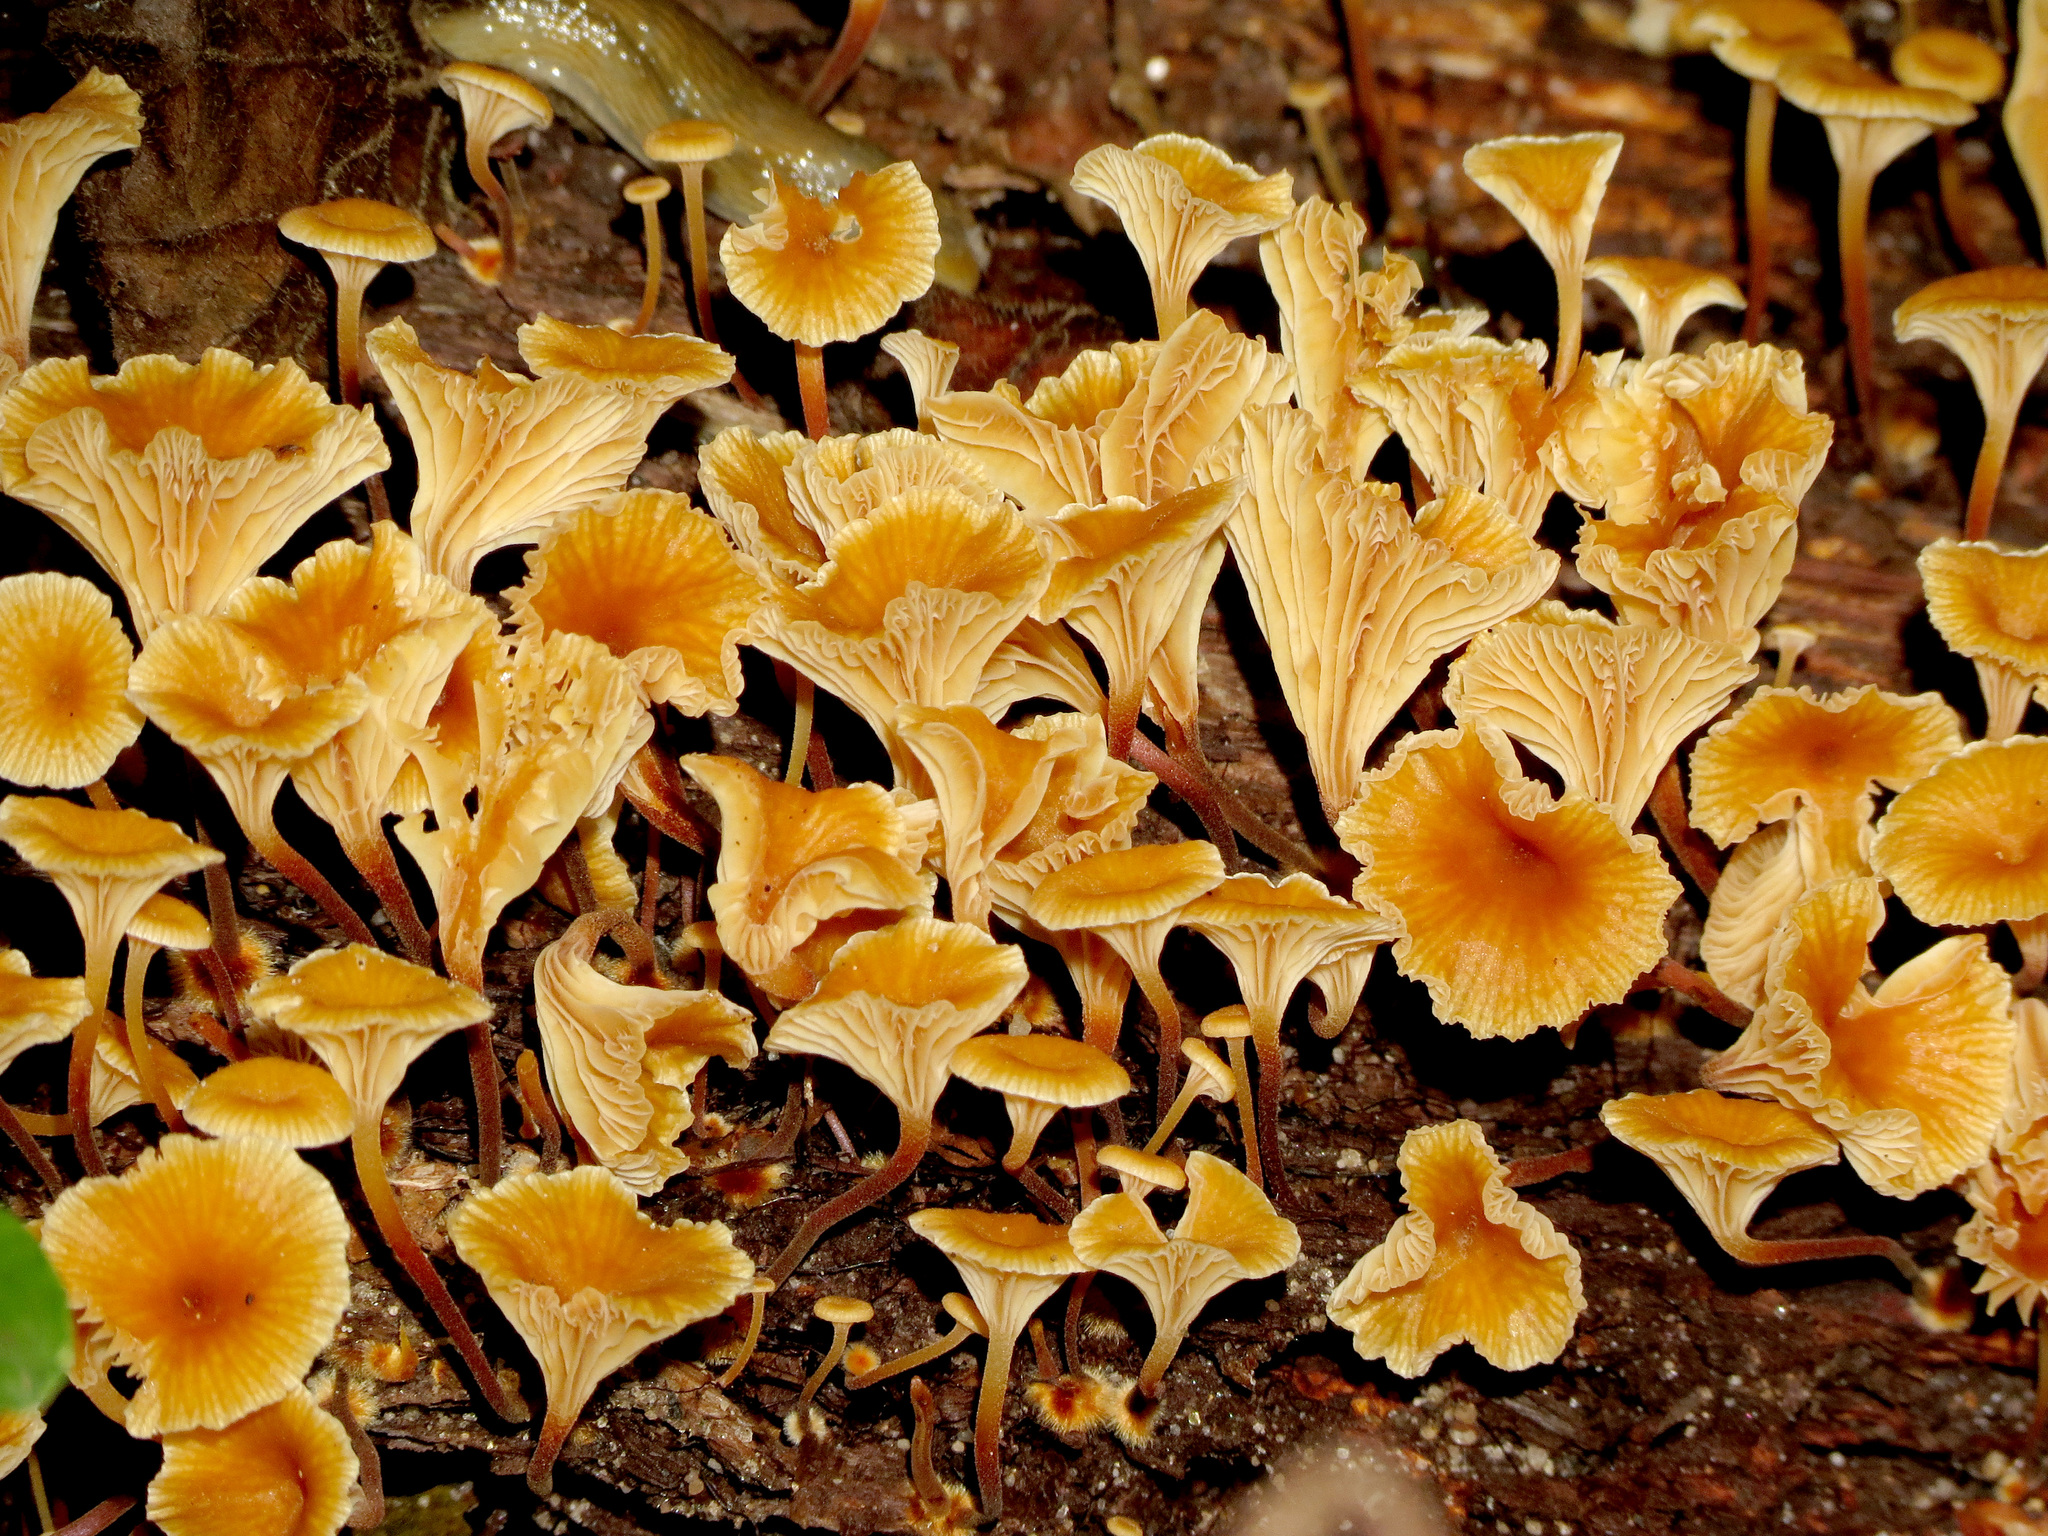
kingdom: Fungi
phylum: Basidiomycota
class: Agaricomycetes
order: Agaricales
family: Mycenaceae
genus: Xeromphalina
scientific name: Xeromphalina kauffmanii
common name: Cross-veined troop mushroom
